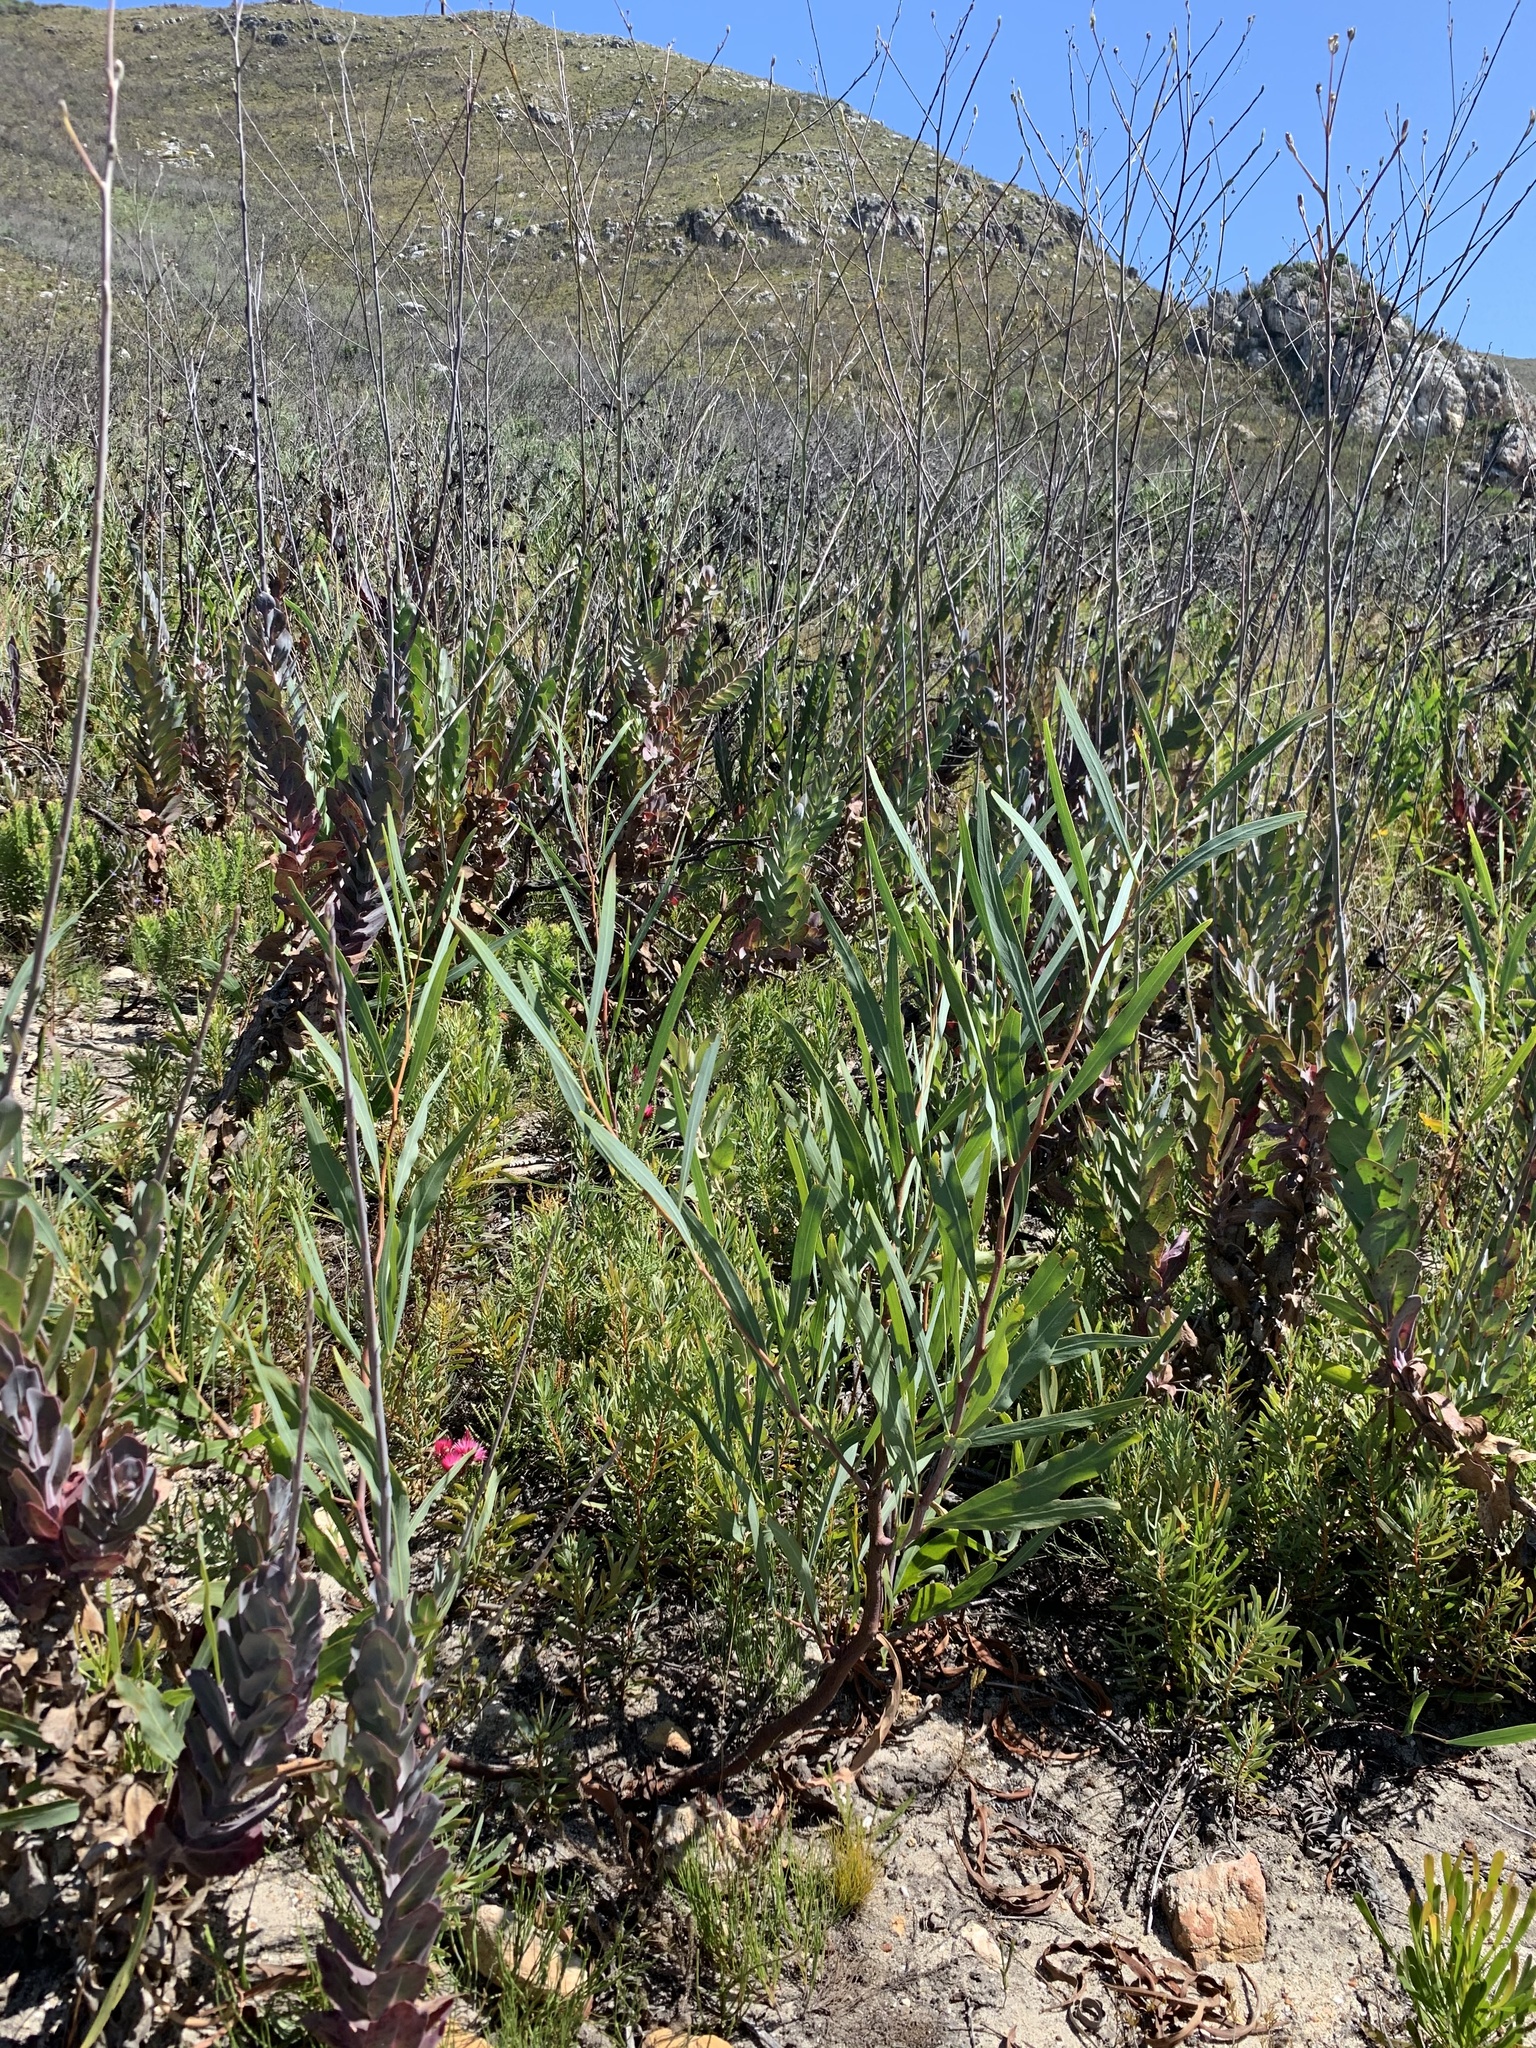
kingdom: Plantae
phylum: Tracheophyta
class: Magnoliopsida
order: Fabales
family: Fabaceae
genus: Acacia
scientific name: Acacia saligna
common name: Orange wattle
